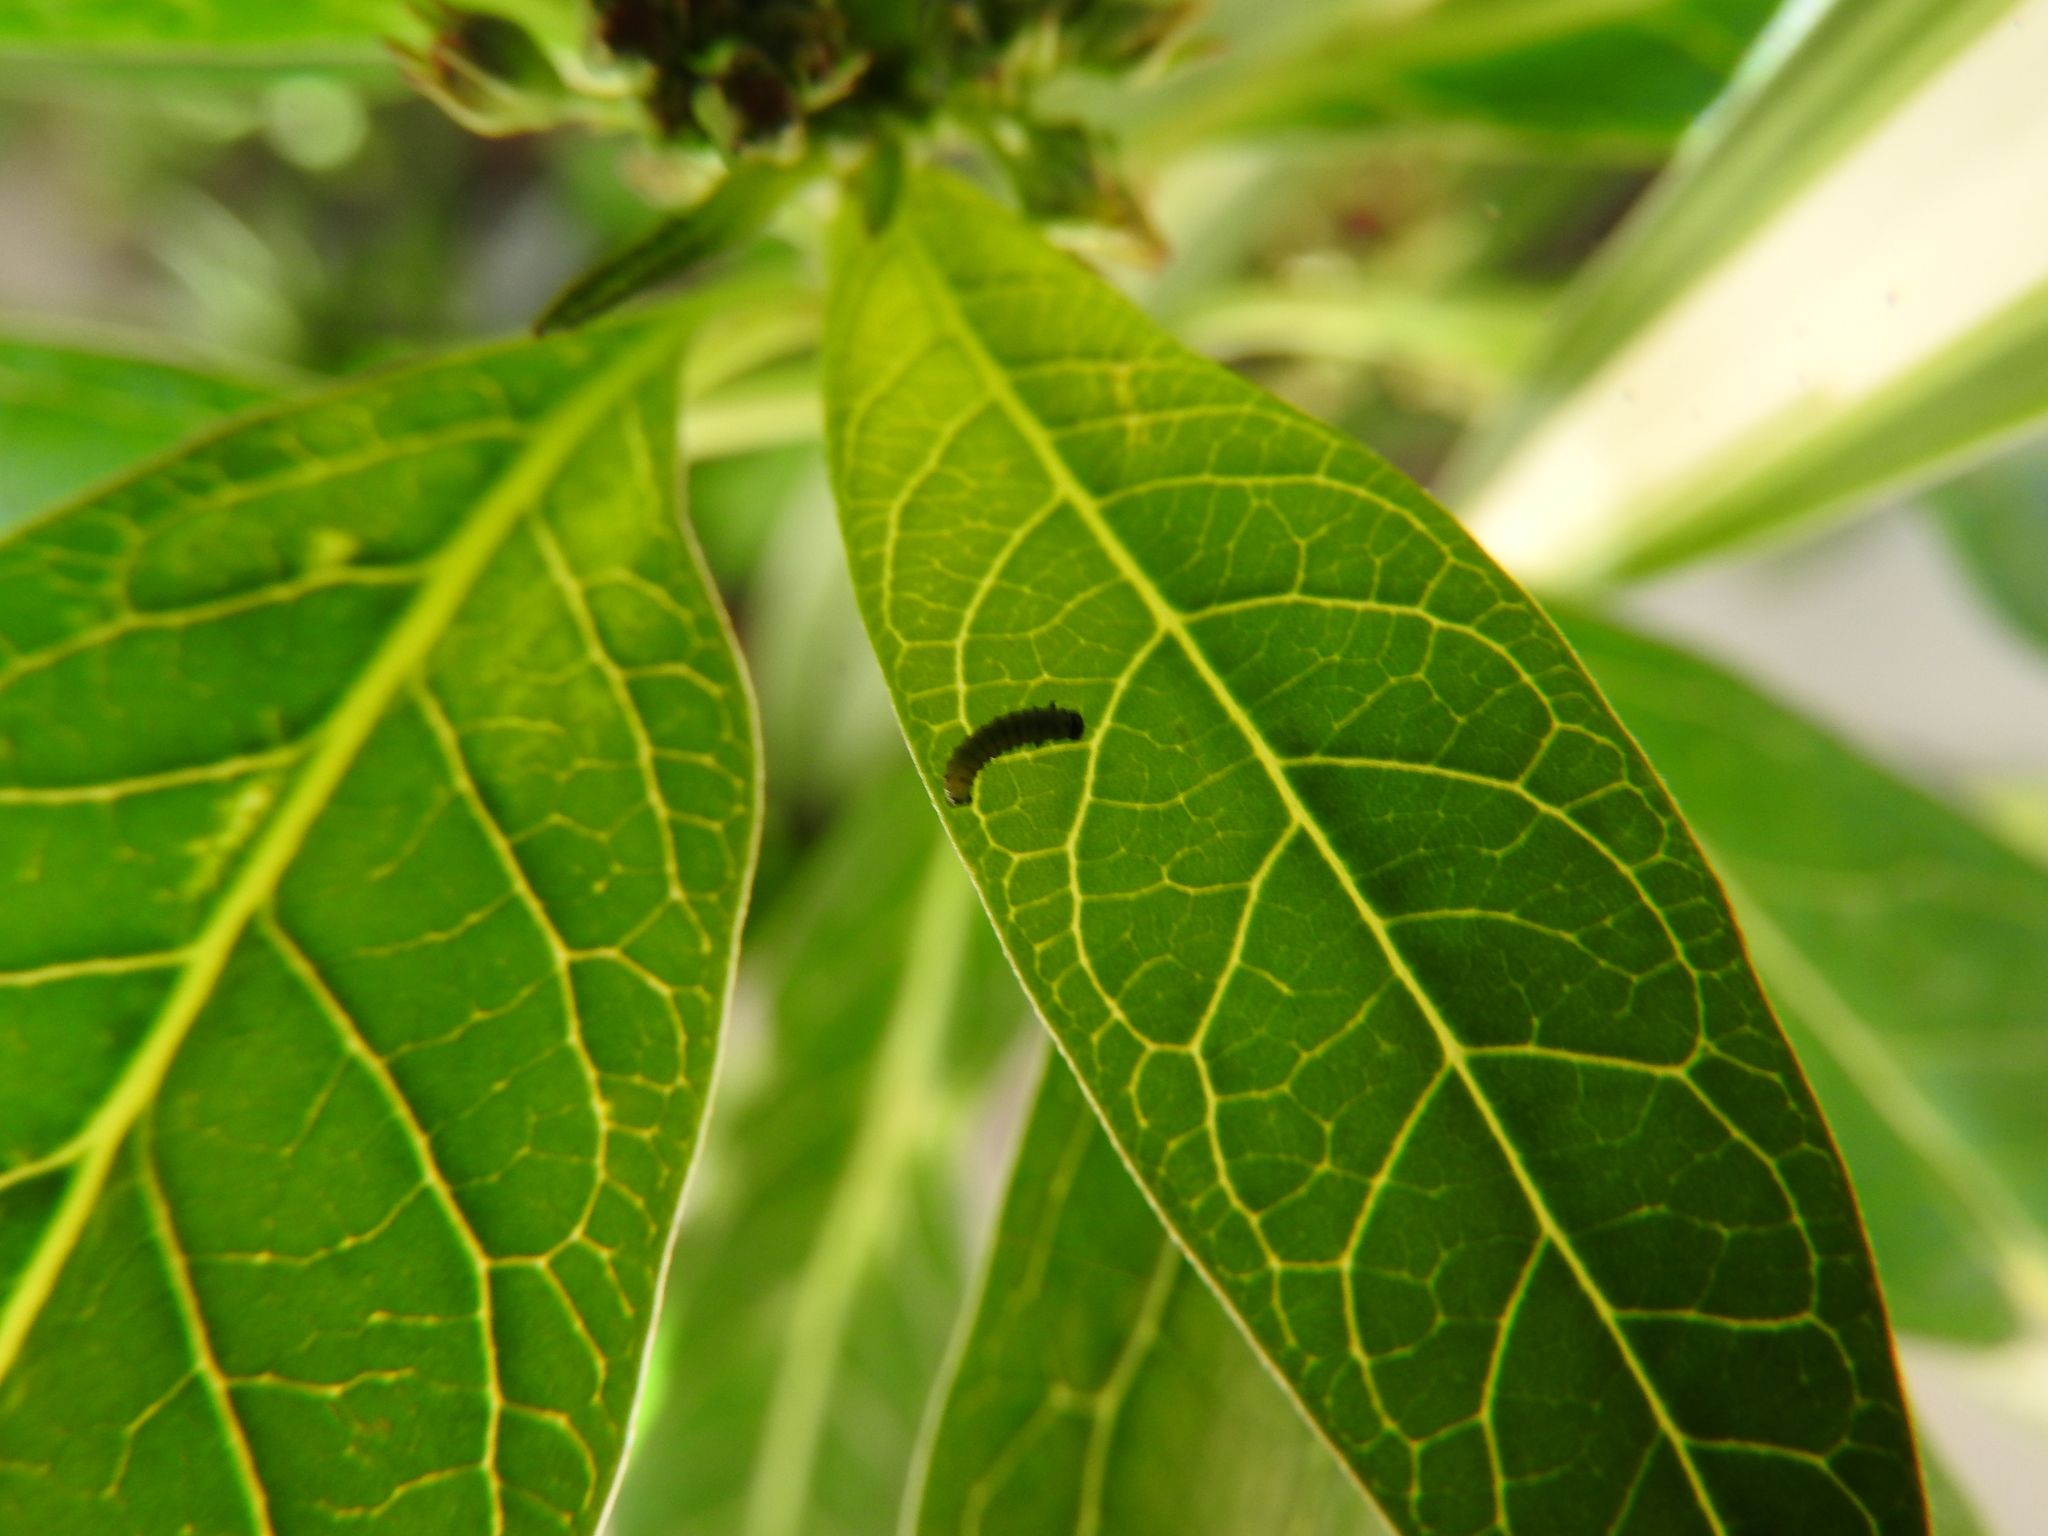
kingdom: Animalia
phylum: Arthropoda
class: Insecta
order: Lepidoptera
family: Nymphalidae
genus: Danaus
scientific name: Danaus plexippus
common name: Monarch
